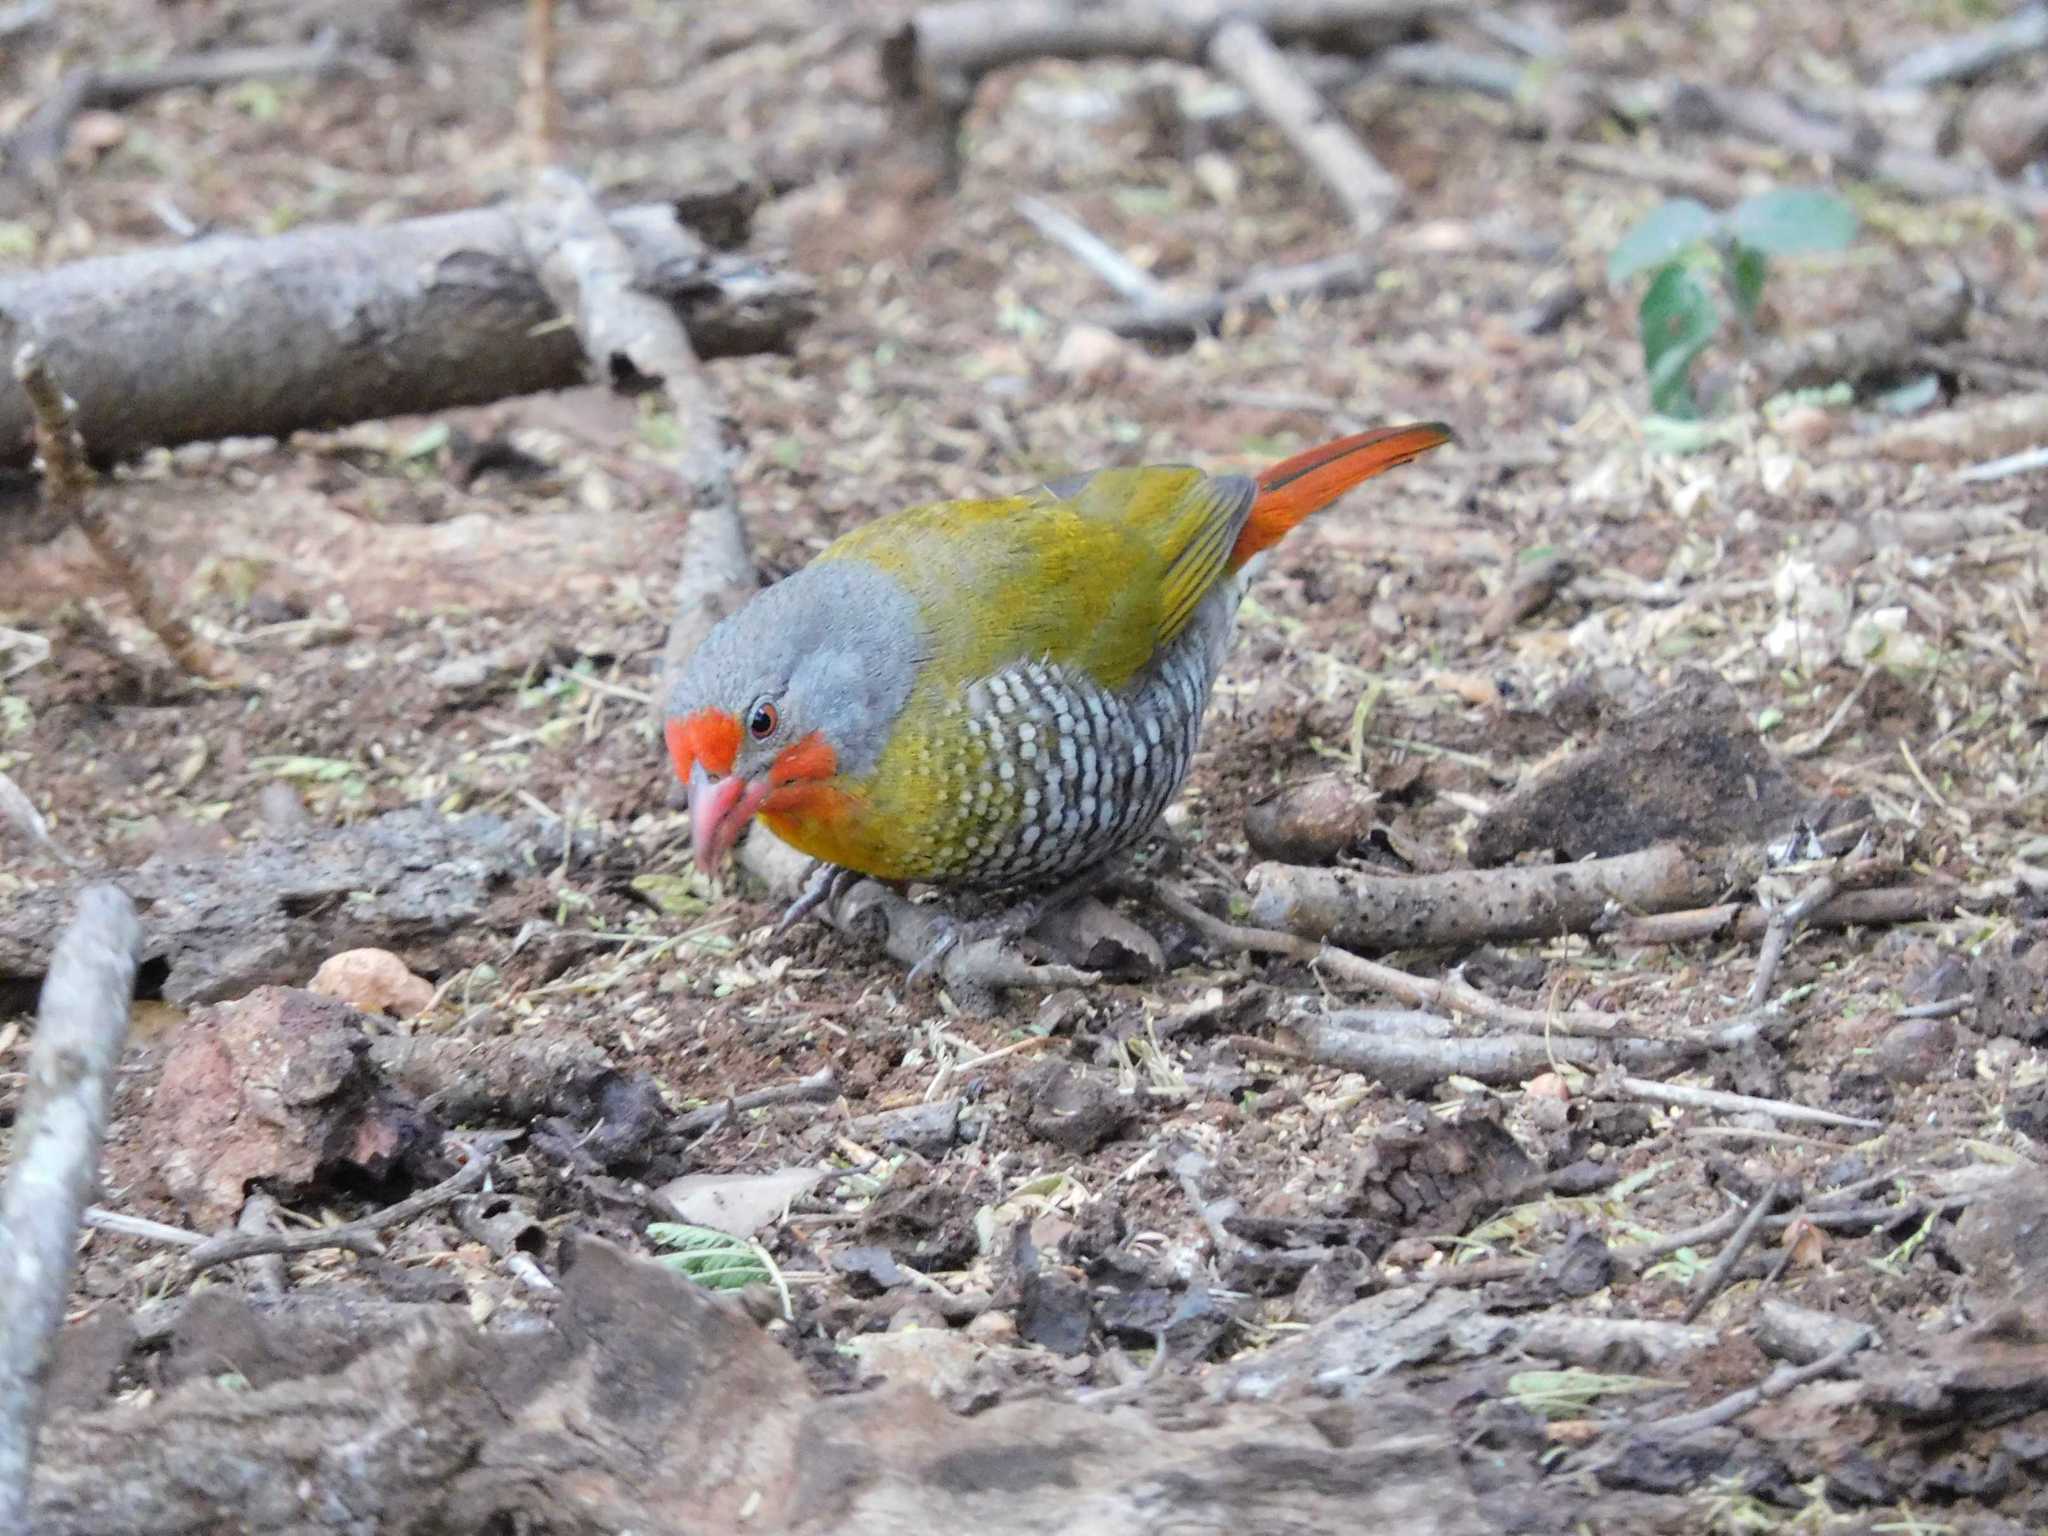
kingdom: Animalia
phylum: Chordata
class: Aves
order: Passeriformes
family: Estrildidae
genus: Pytilia
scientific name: Pytilia melba
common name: Green-winged pytilia
